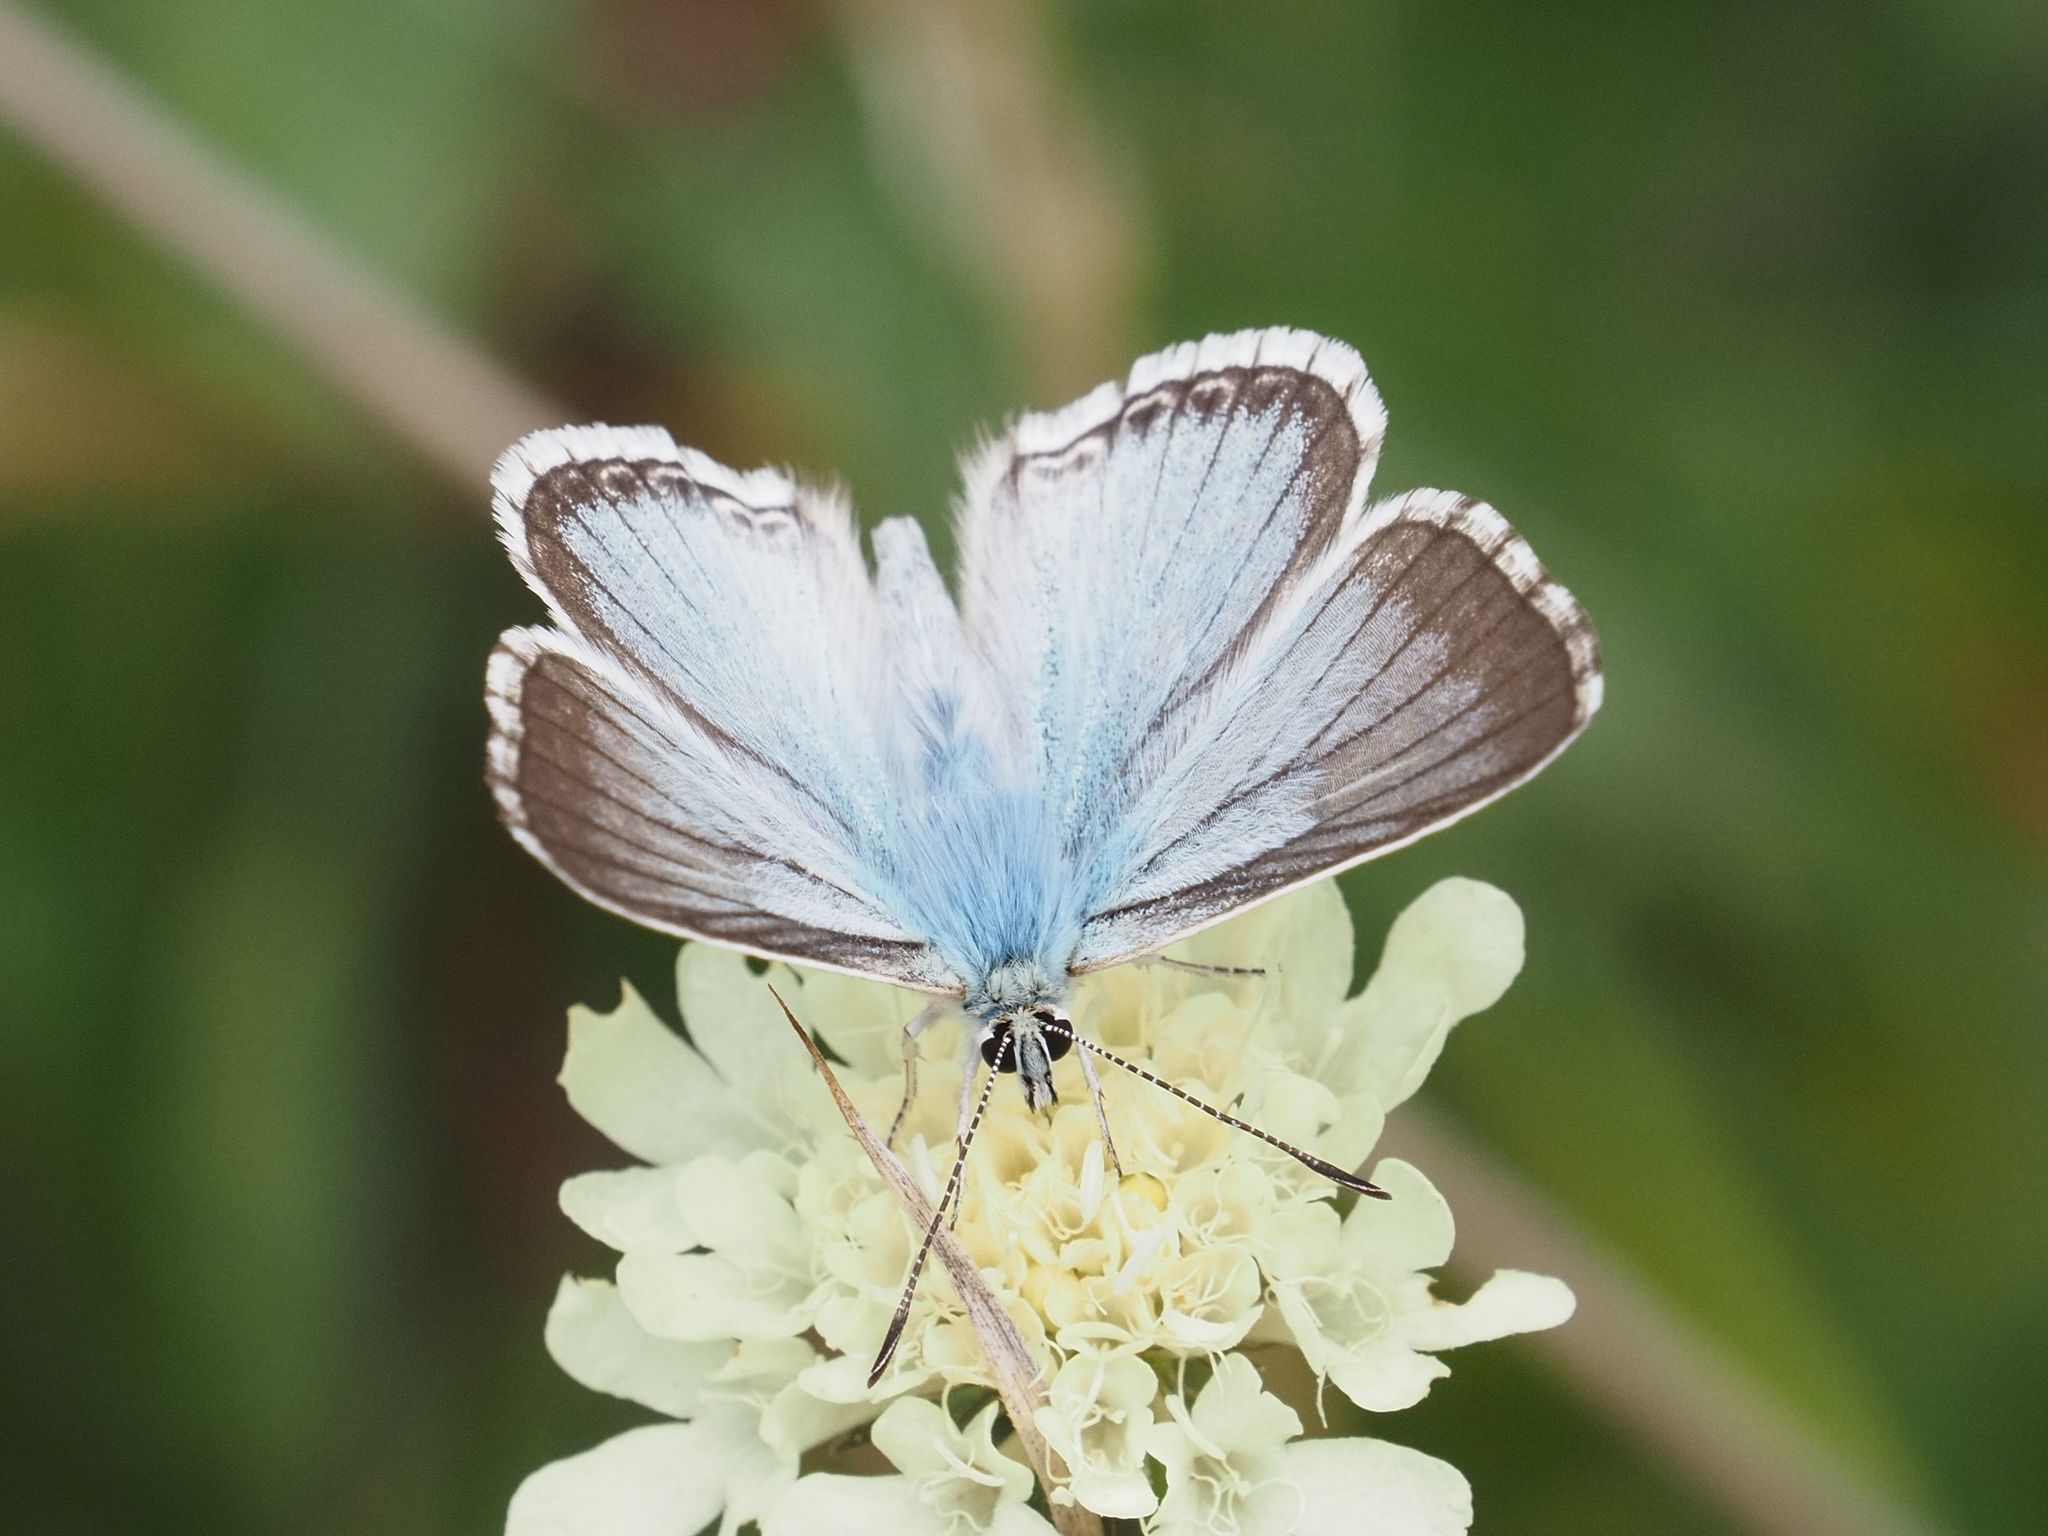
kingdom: Animalia
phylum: Arthropoda
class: Insecta
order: Lepidoptera
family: Lycaenidae
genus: Lysandra
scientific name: Lysandra coridon
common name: Chalkhill blue
